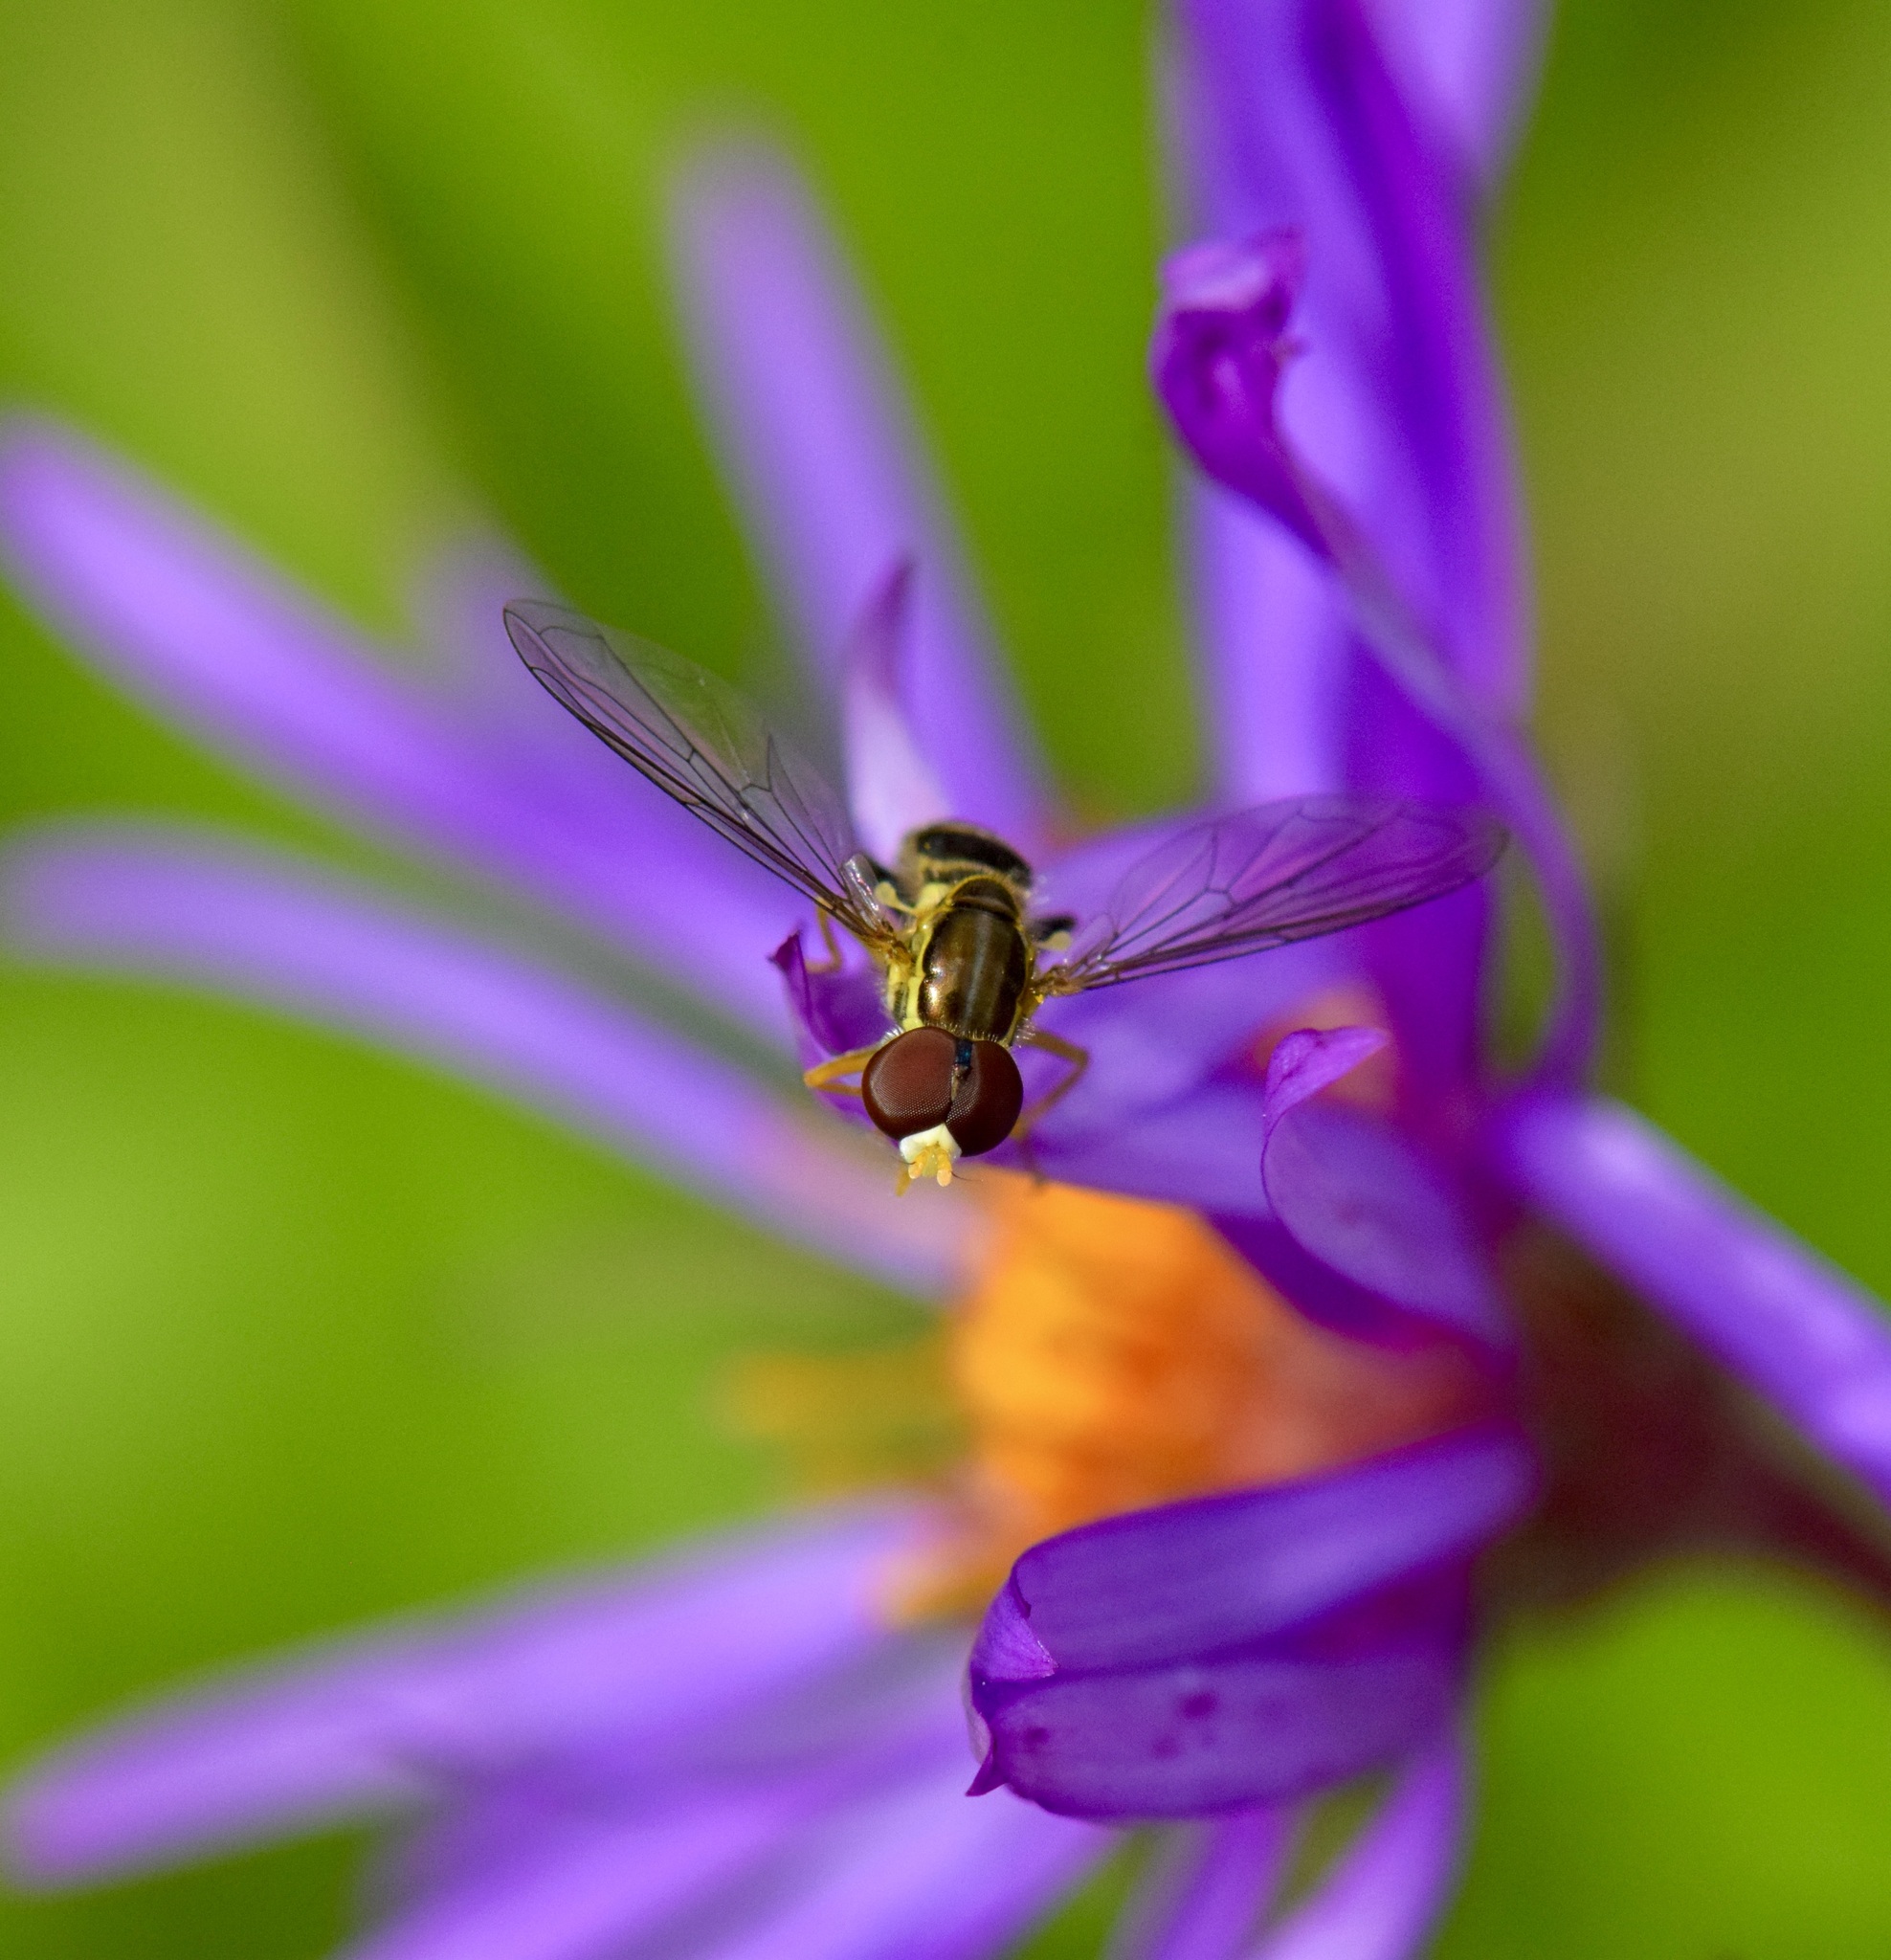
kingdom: Animalia
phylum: Arthropoda
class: Insecta
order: Diptera
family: Syrphidae
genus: Toxomerus
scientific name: Toxomerus geminatus
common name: Eastern calligrapher
